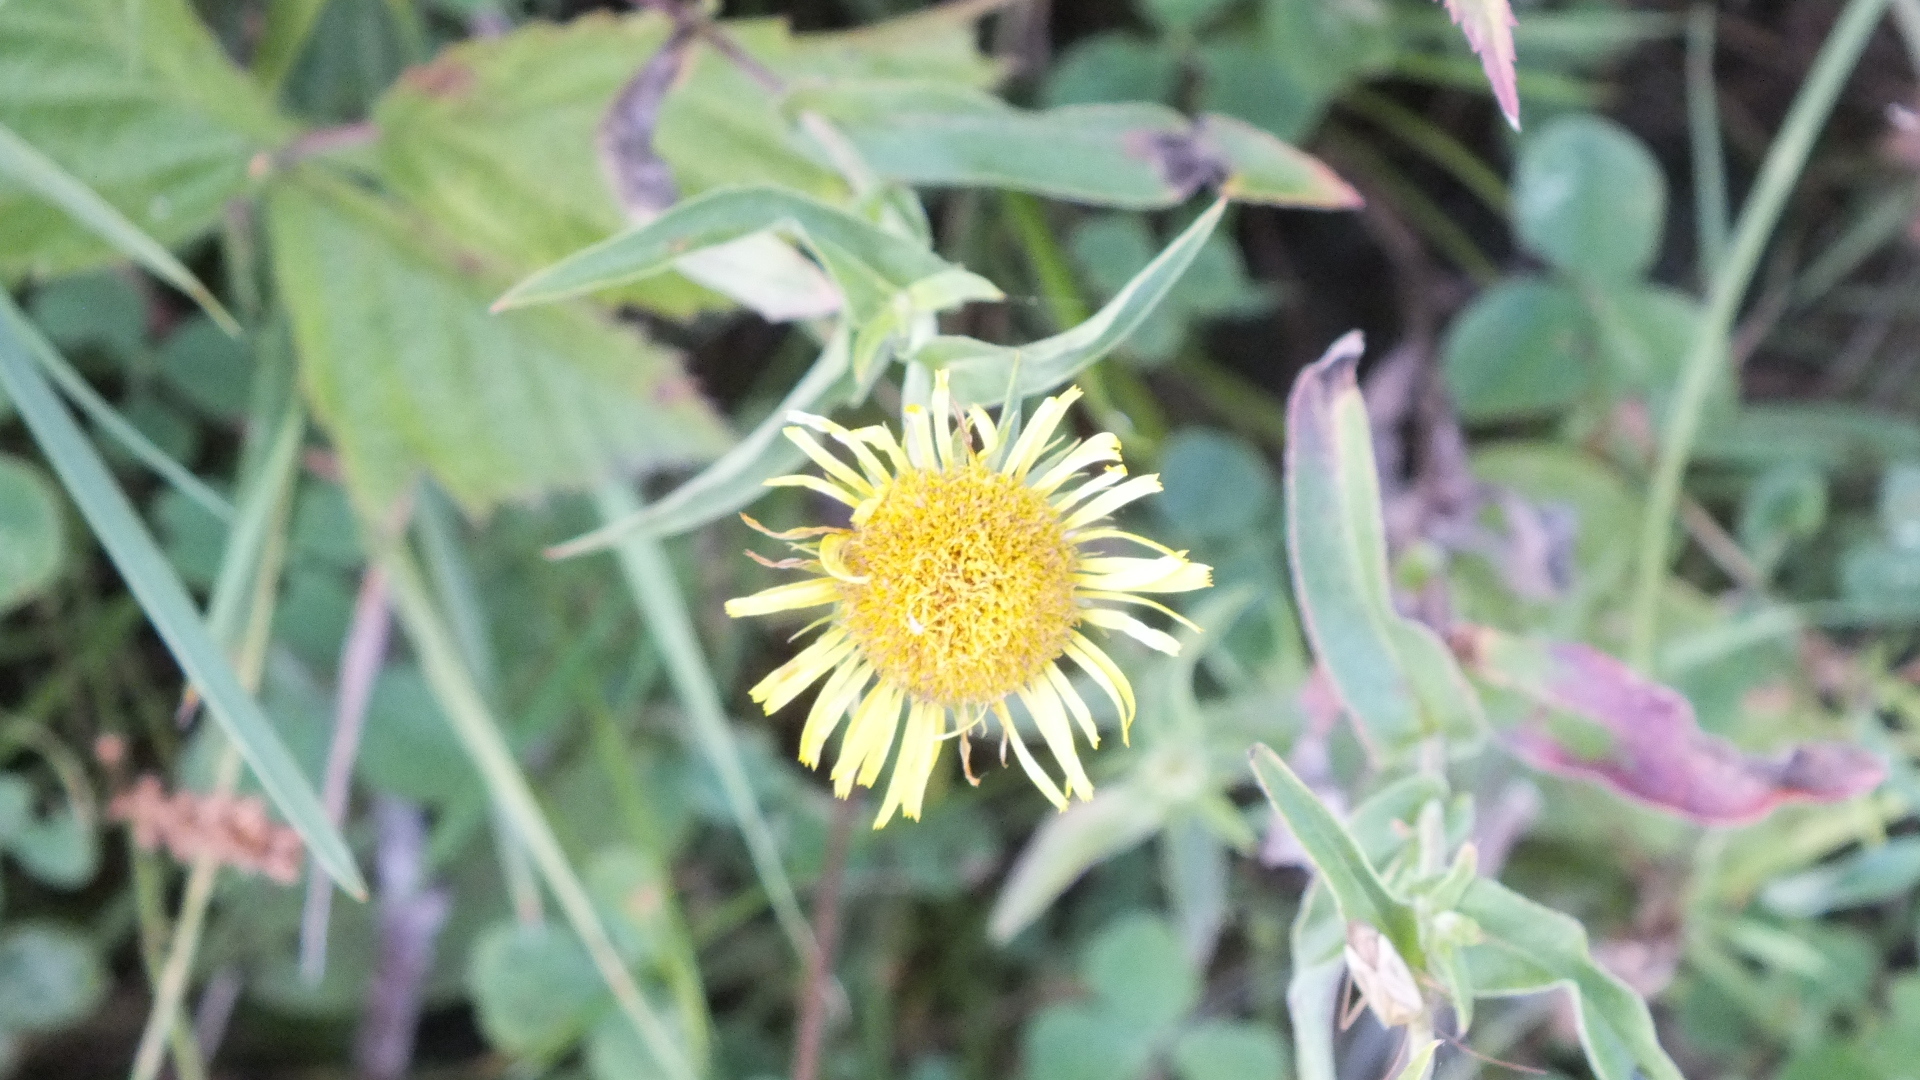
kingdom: Plantae
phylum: Tracheophyta
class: Magnoliopsida
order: Asterales
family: Asteraceae
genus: Pentanema
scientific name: Pentanema britannicum
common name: British elecampane
